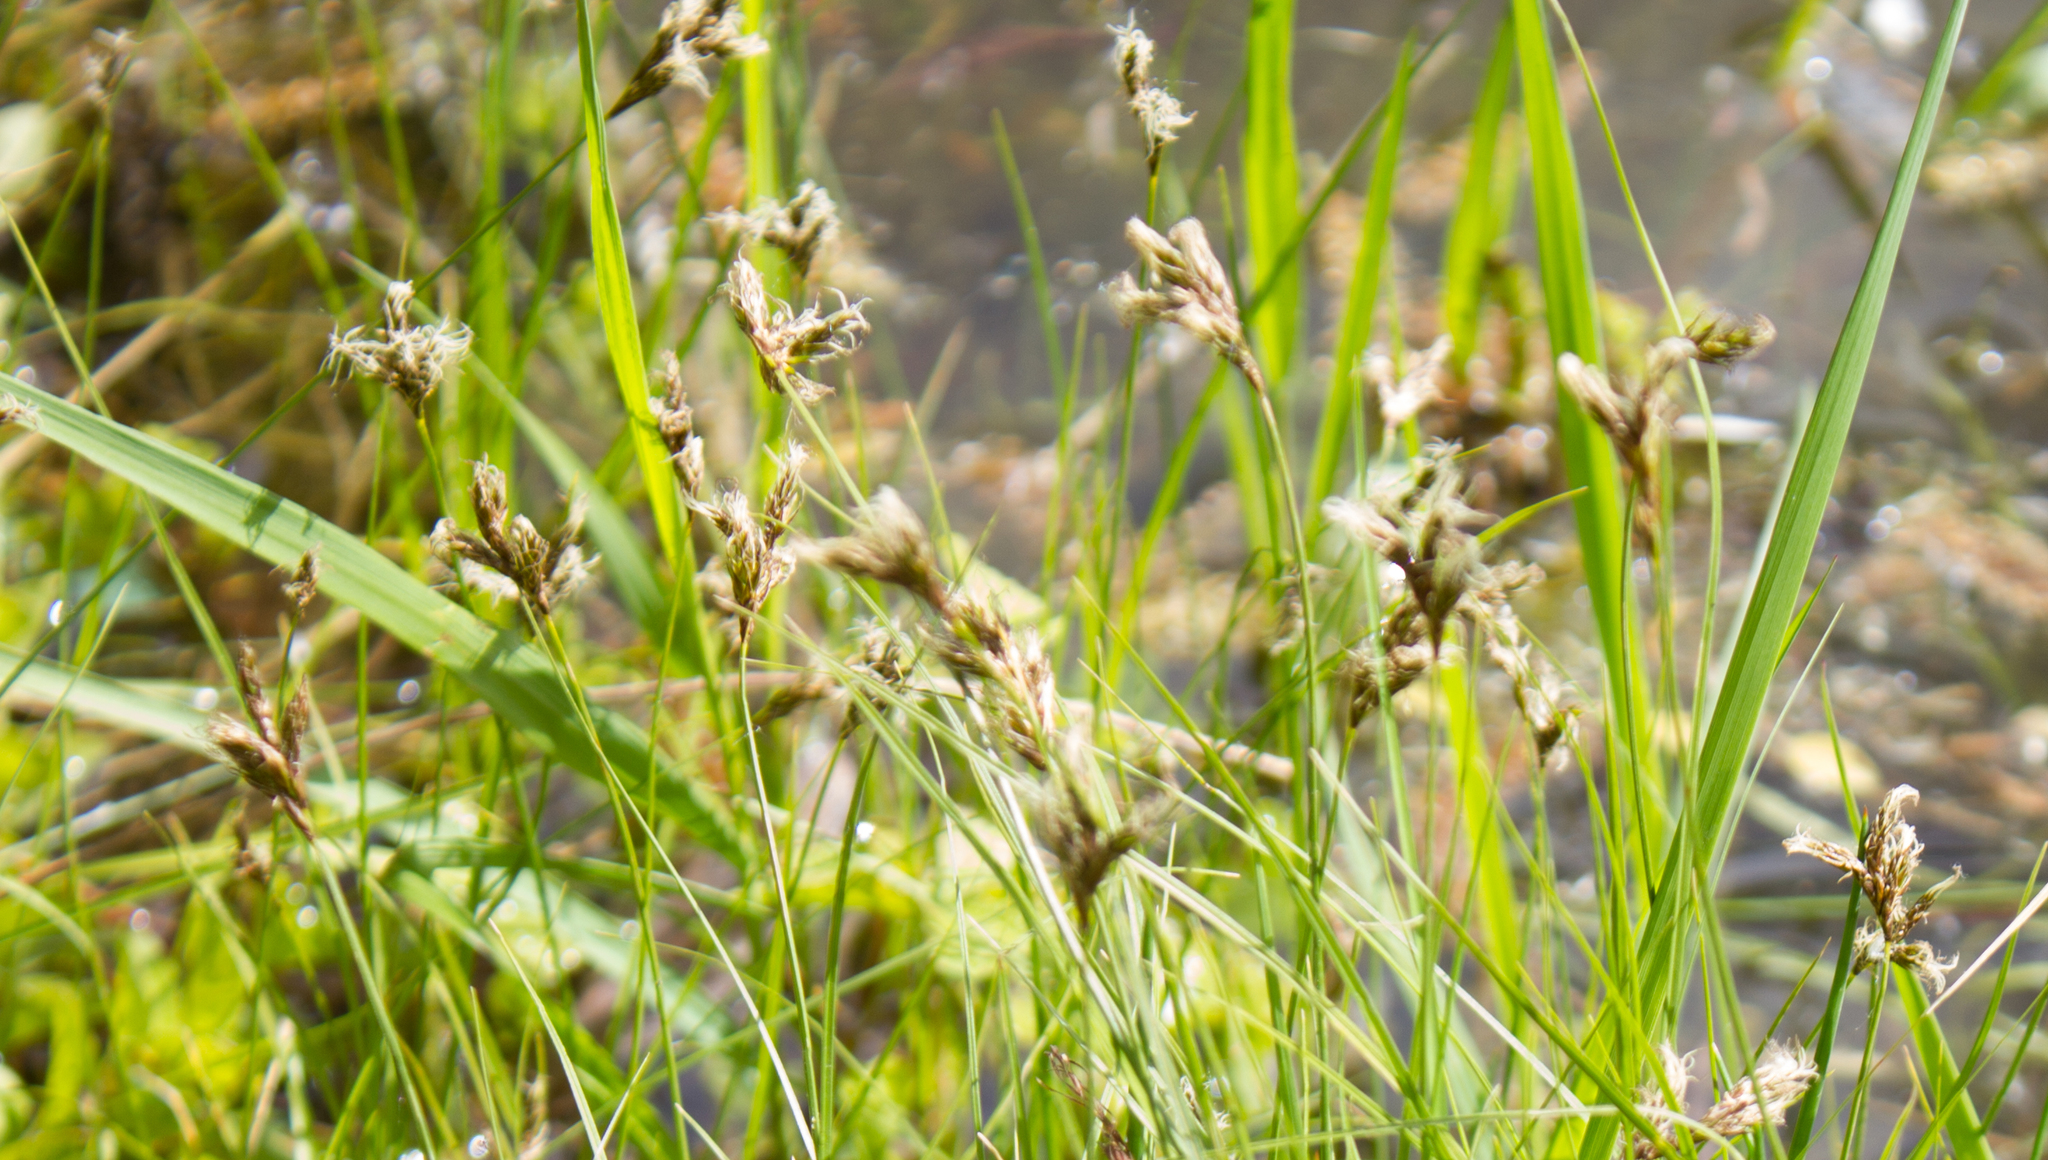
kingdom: Plantae
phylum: Tracheophyta
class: Liliopsida
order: Poales
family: Cyperaceae
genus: Carex
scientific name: Carex praecox
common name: Early sedge
